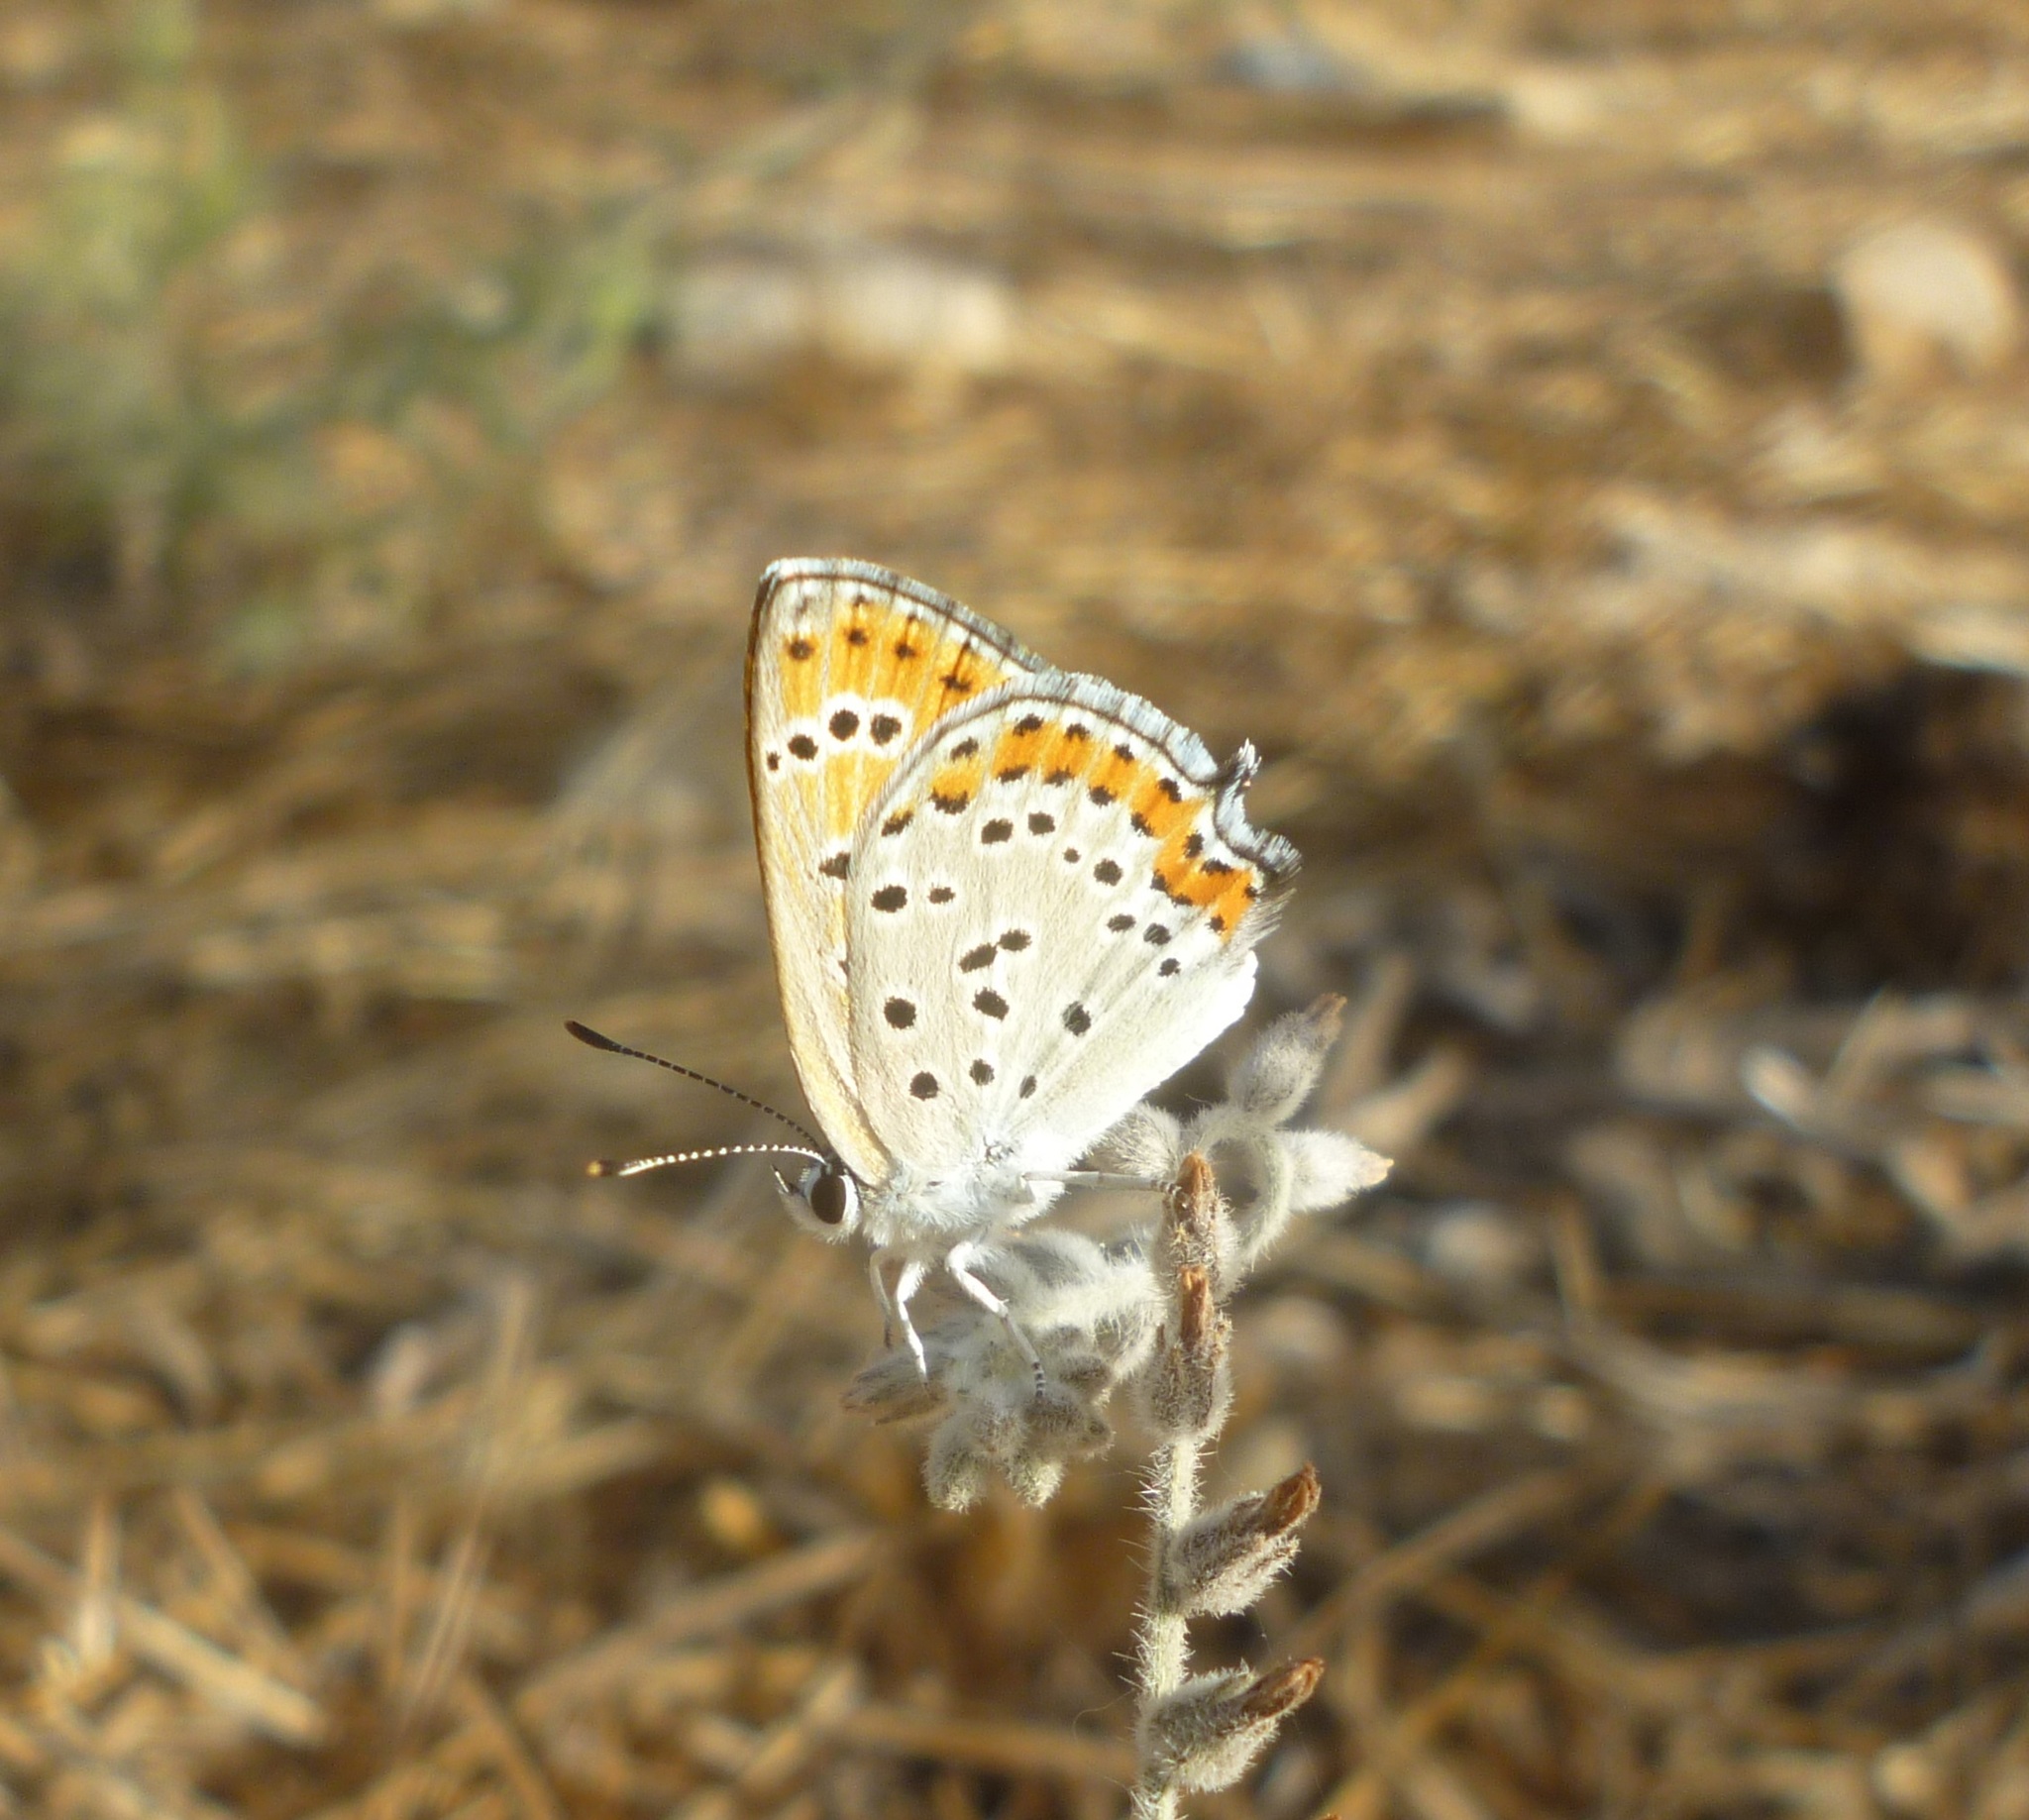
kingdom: Animalia
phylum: Arthropoda
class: Insecta
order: Lepidoptera
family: Lycaenidae
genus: Thersamonia
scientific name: Thersamonia thersamon
